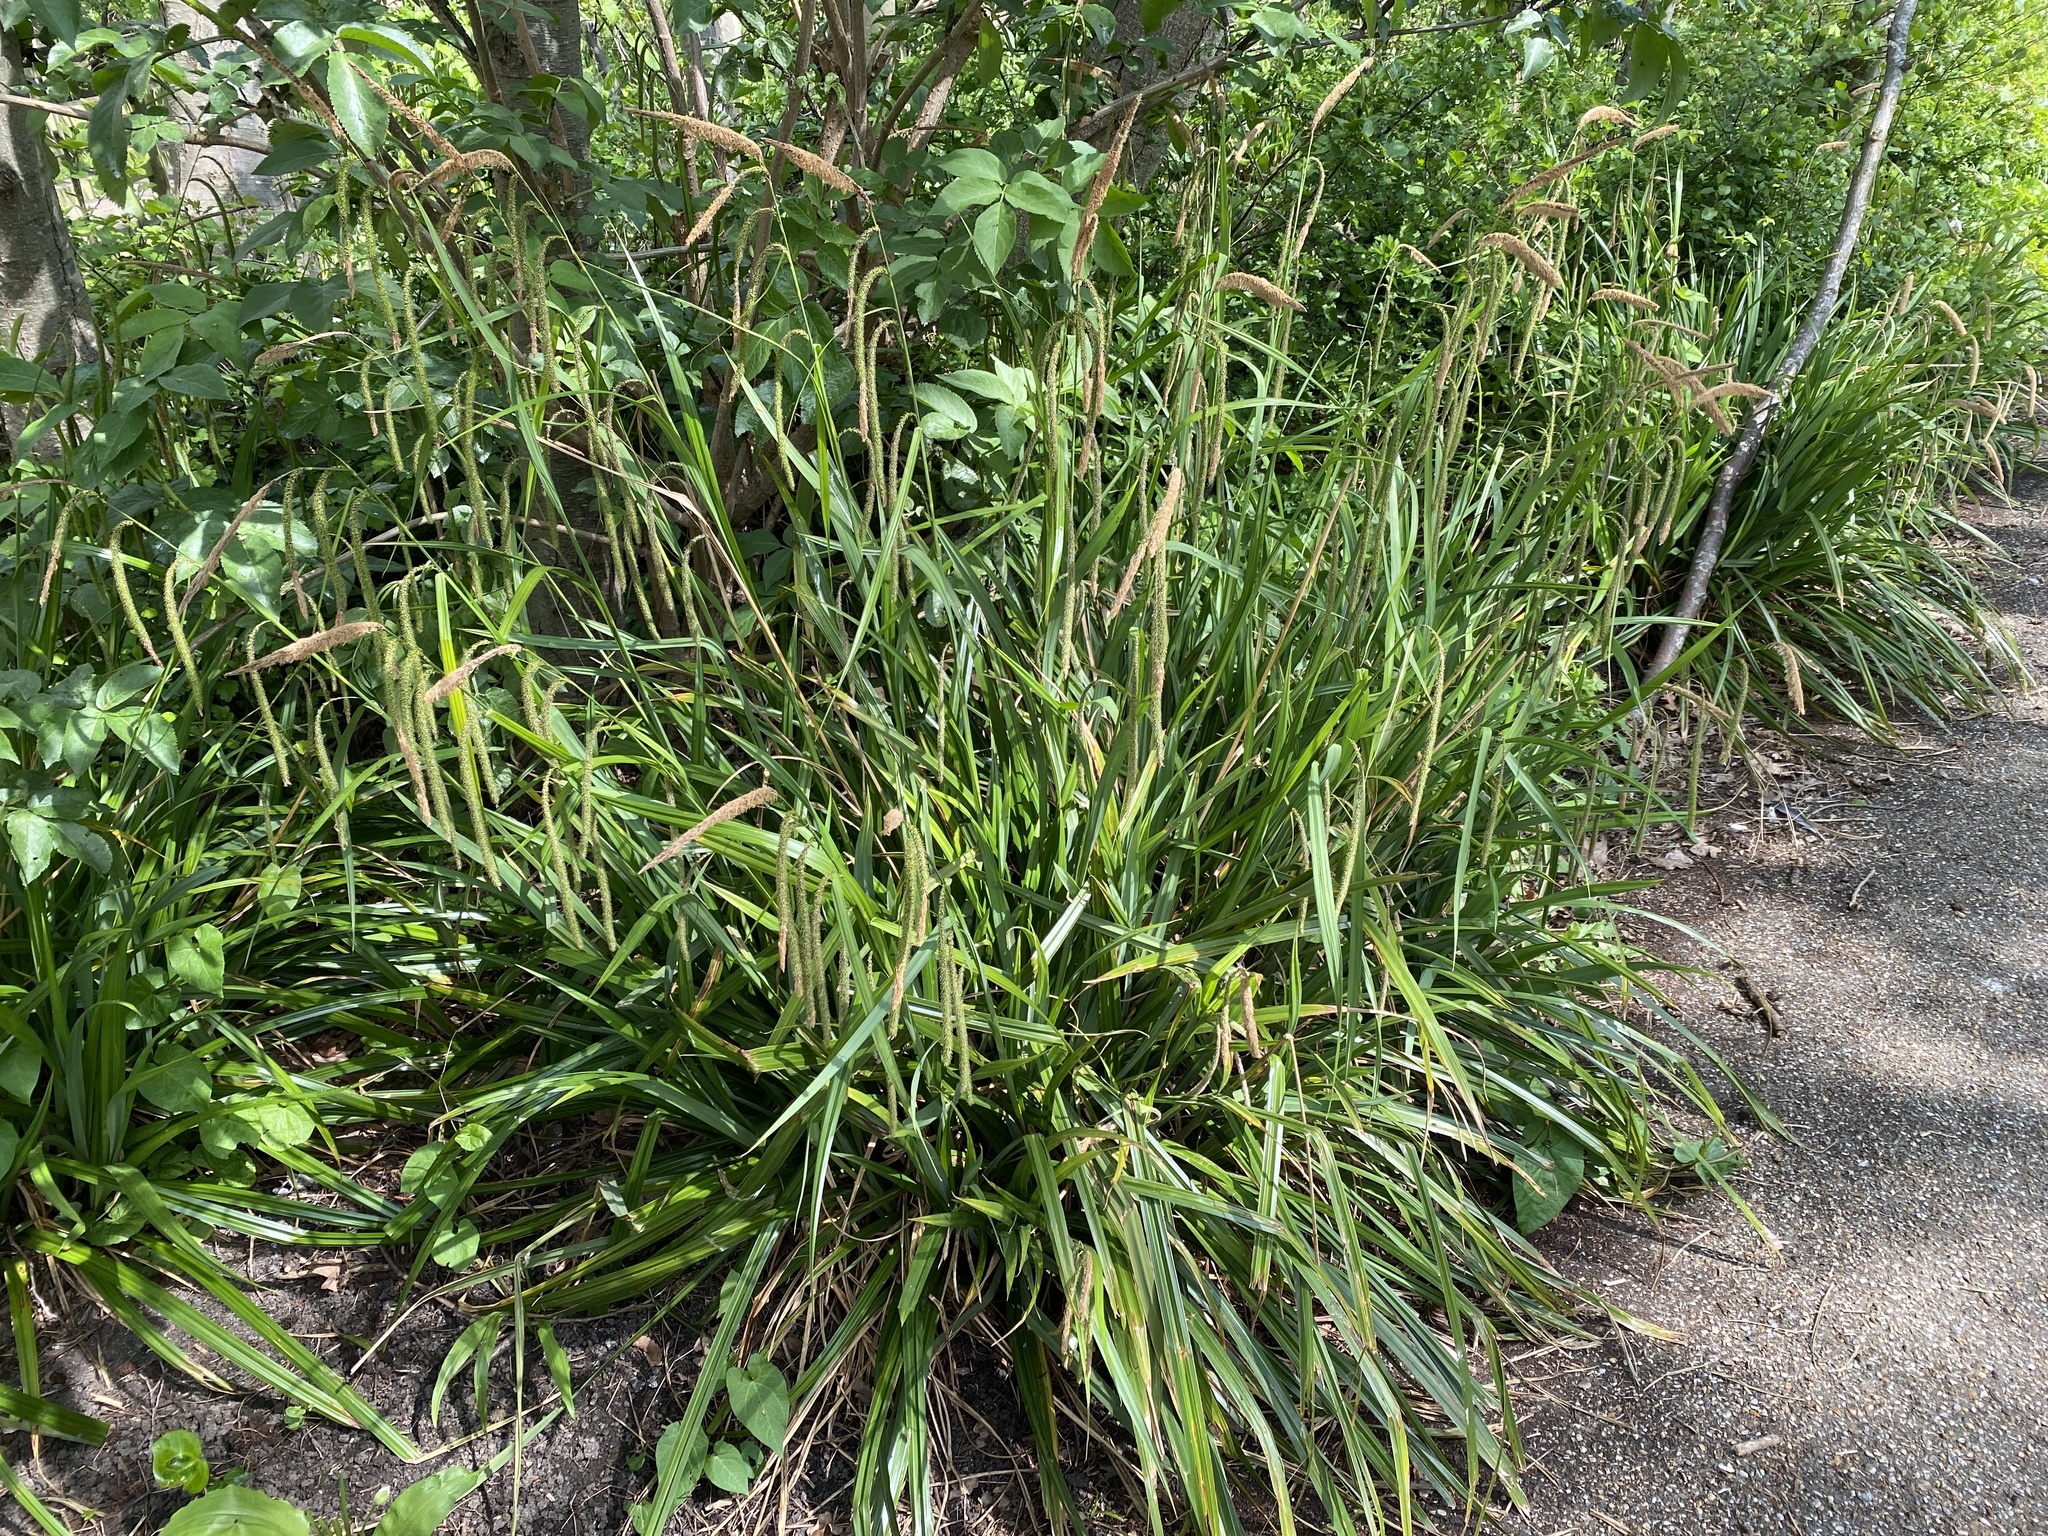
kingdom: Plantae
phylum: Tracheophyta
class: Liliopsida
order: Poales
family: Cyperaceae
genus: Carex
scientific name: Carex pendula
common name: Pendulous sedge
